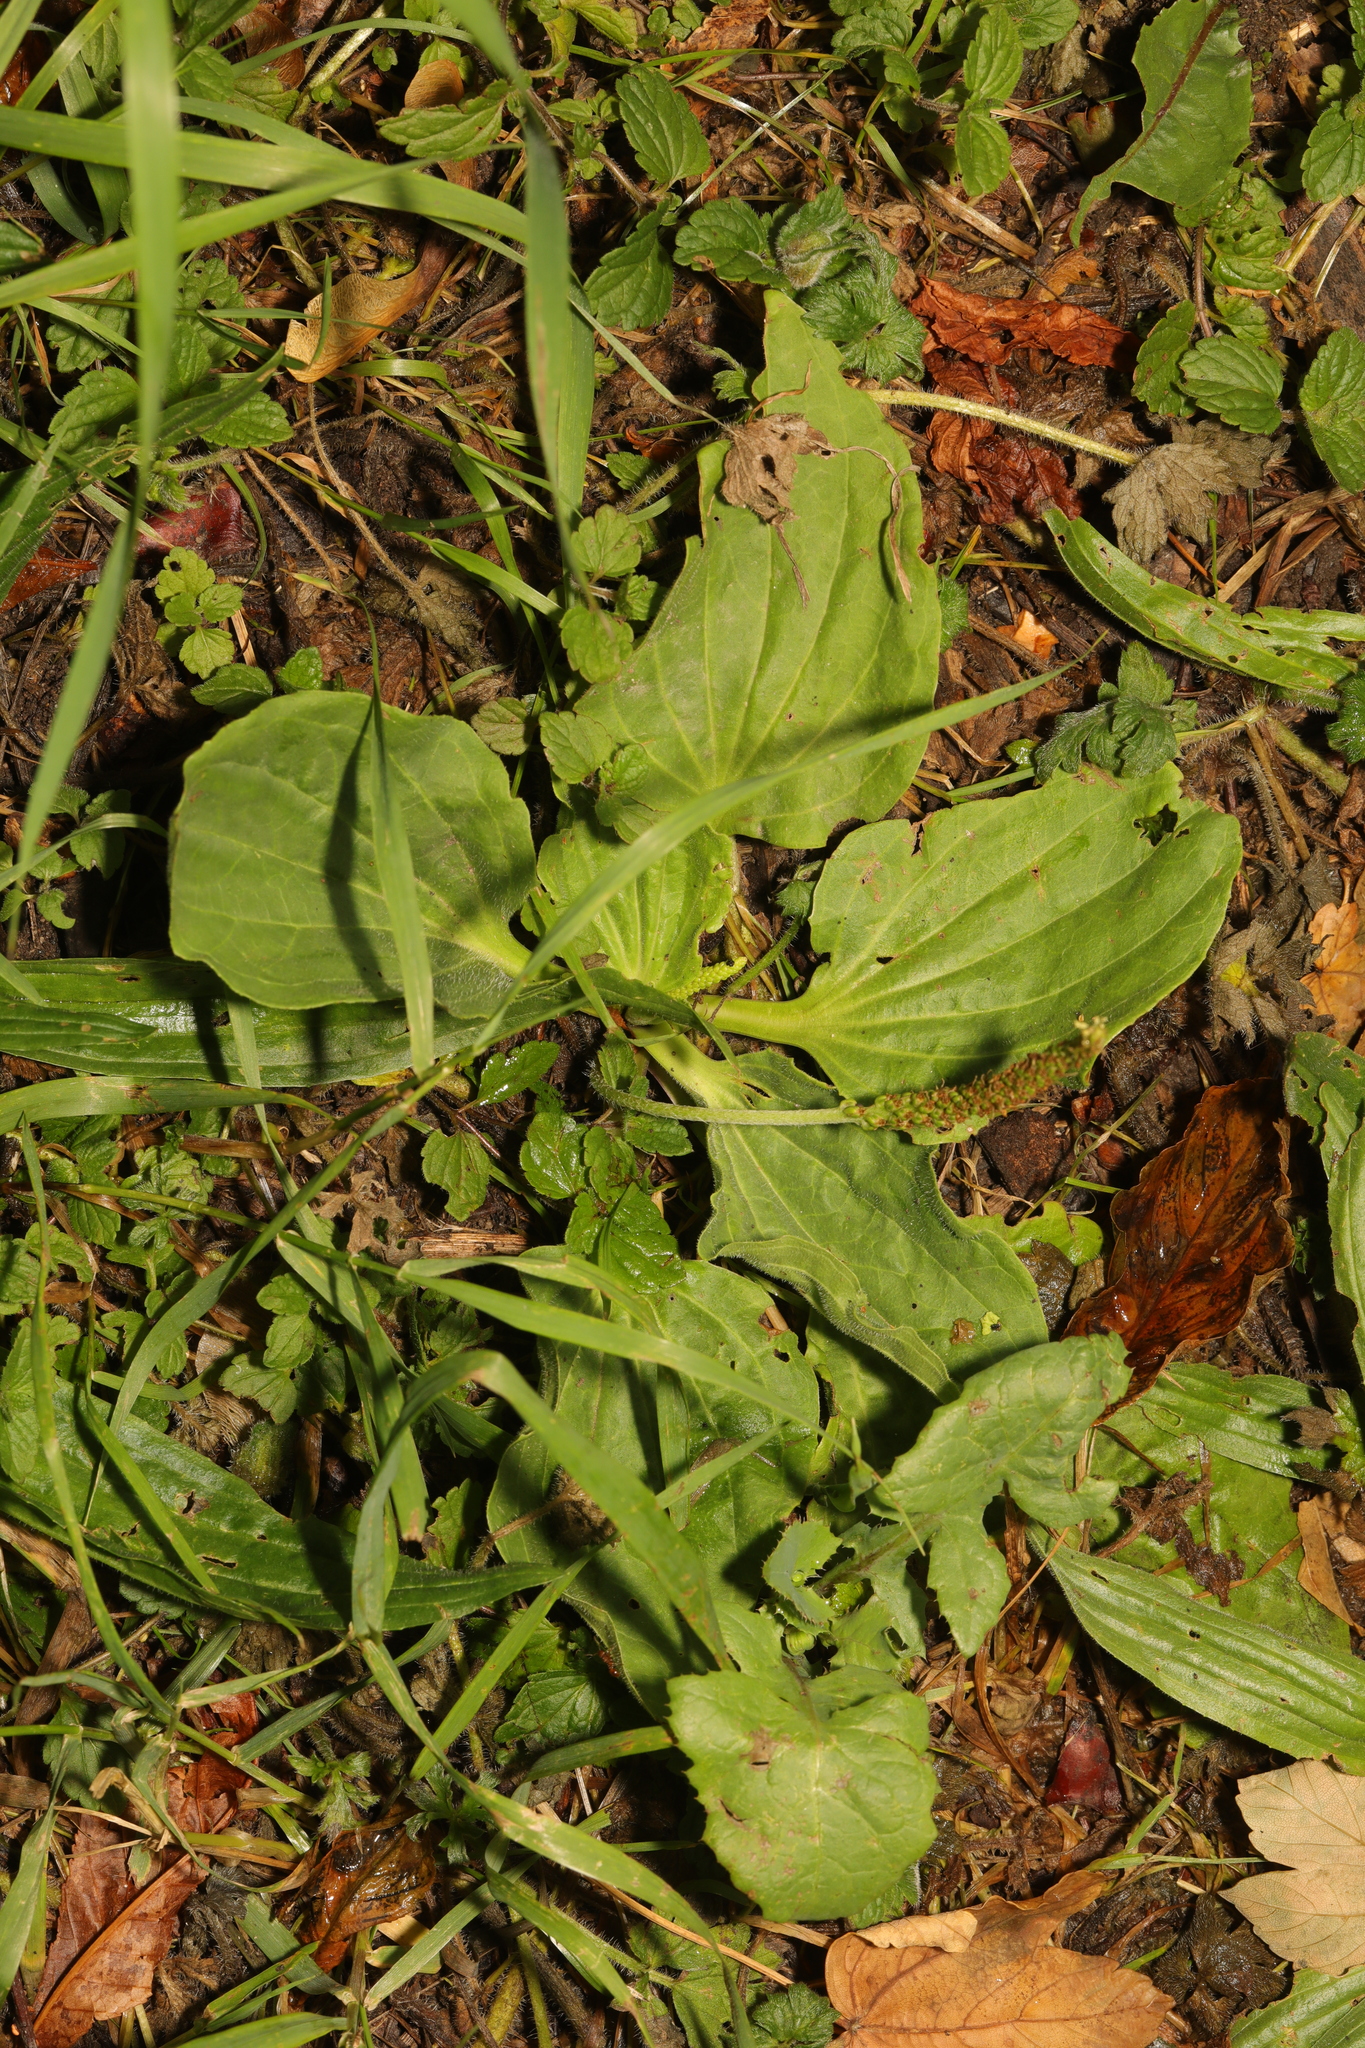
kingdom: Plantae
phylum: Tracheophyta
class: Magnoliopsida
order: Lamiales
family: Plantaginaceae
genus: Plantago
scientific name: Plantago major
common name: Common plantain
